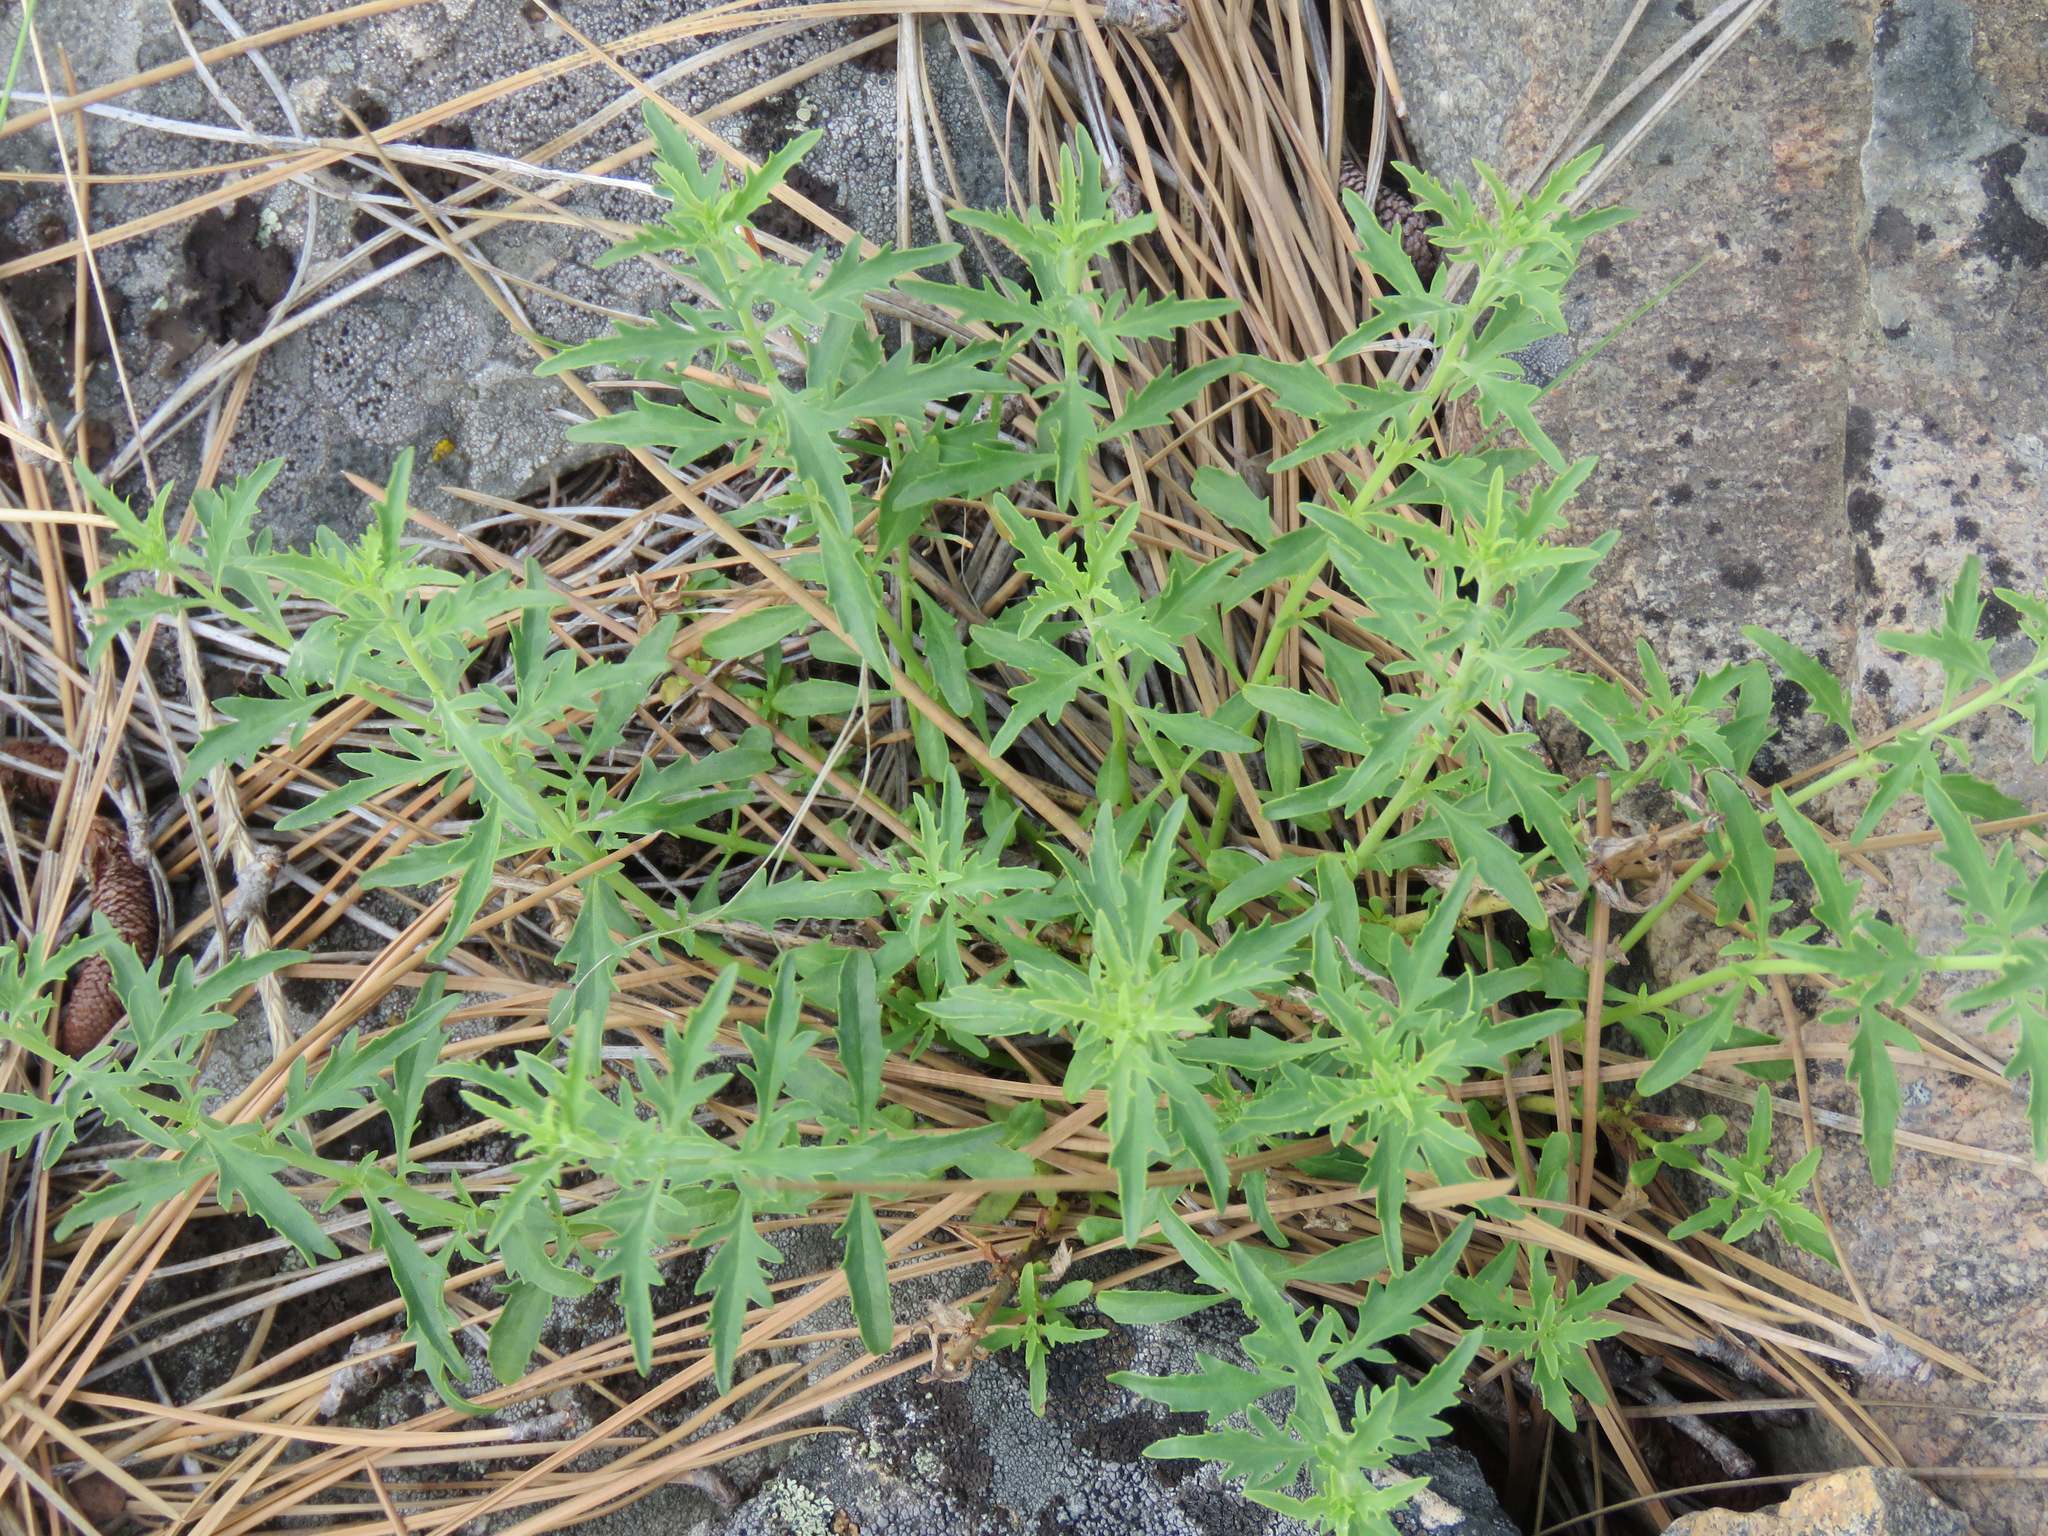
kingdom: Plantae
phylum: Tracheophyta
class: Magnoliopsida
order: Lamiales
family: Plantaginaceae
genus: Penstemon
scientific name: Penstemon richardsonii
